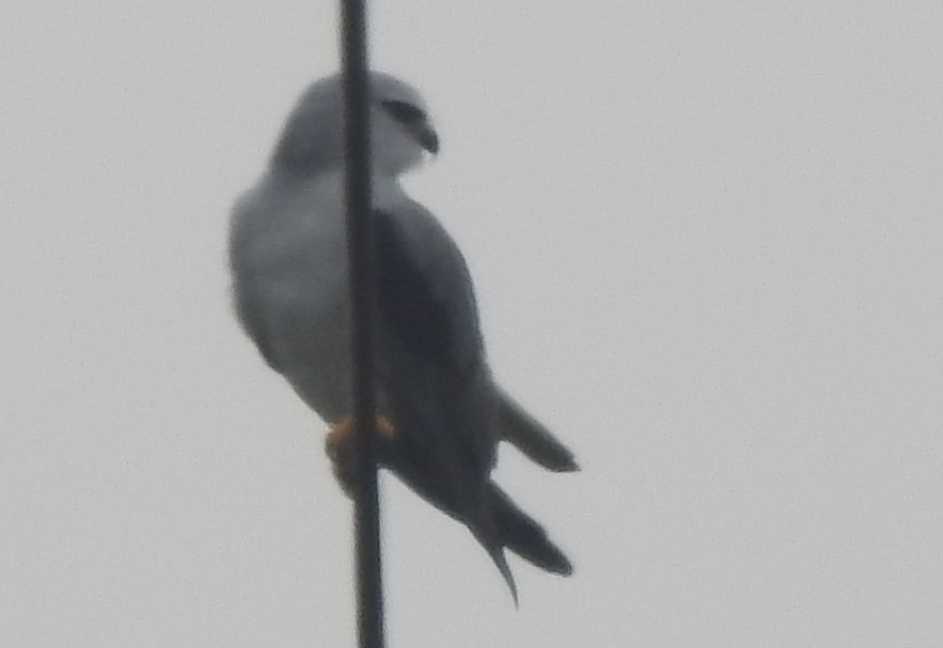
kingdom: Animalia
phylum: Chordata
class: Aves
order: Accipitriformes
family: Accipitridae
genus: Elanus
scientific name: Elanus caeruleus
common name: Black-winged kite
